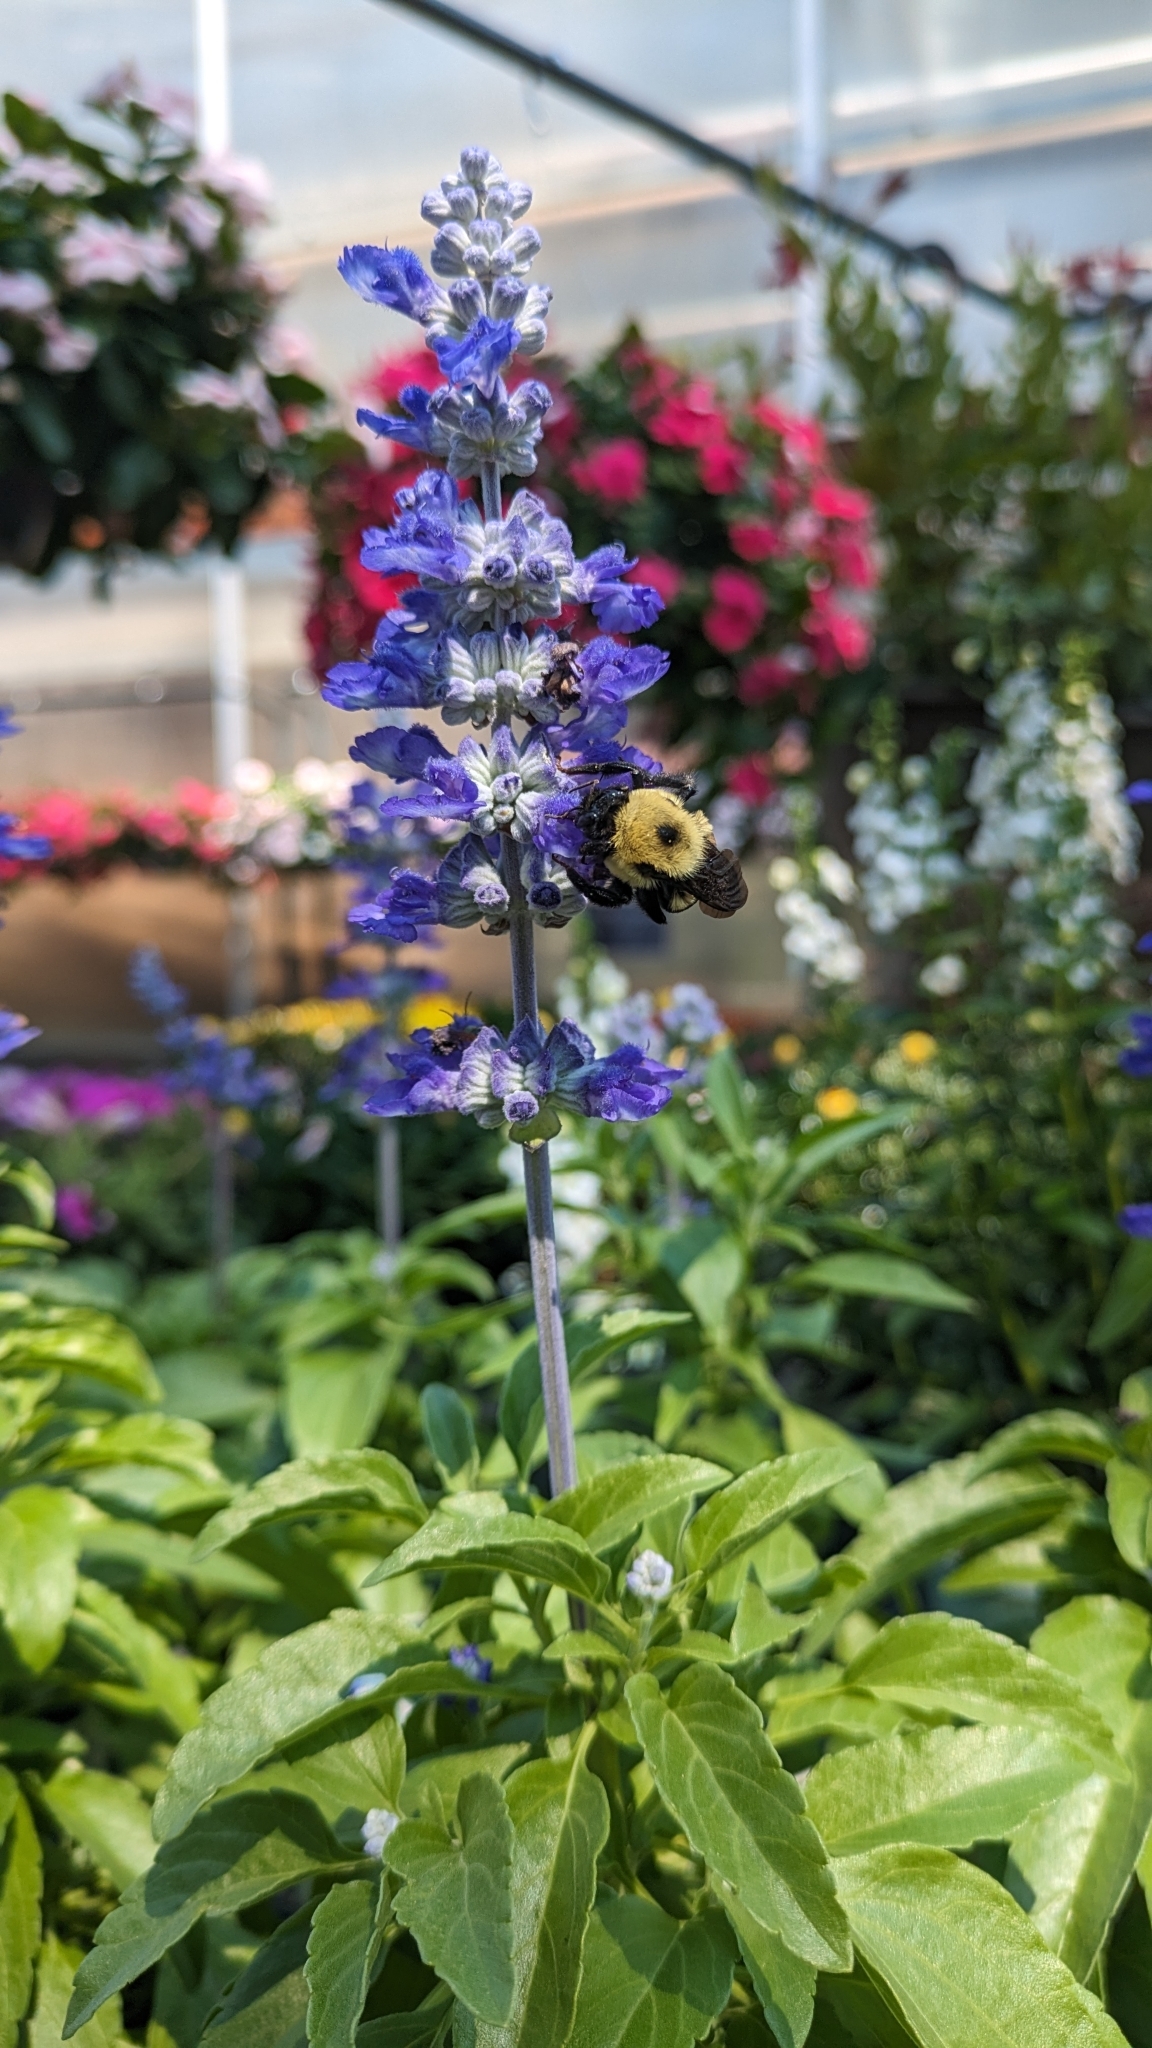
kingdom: Animalia
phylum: Arthropoda
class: Insecta
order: Hymenoptera
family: Apidae
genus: Bombus
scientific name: Bombus griseocollis
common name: Brown-belted bumble bee
